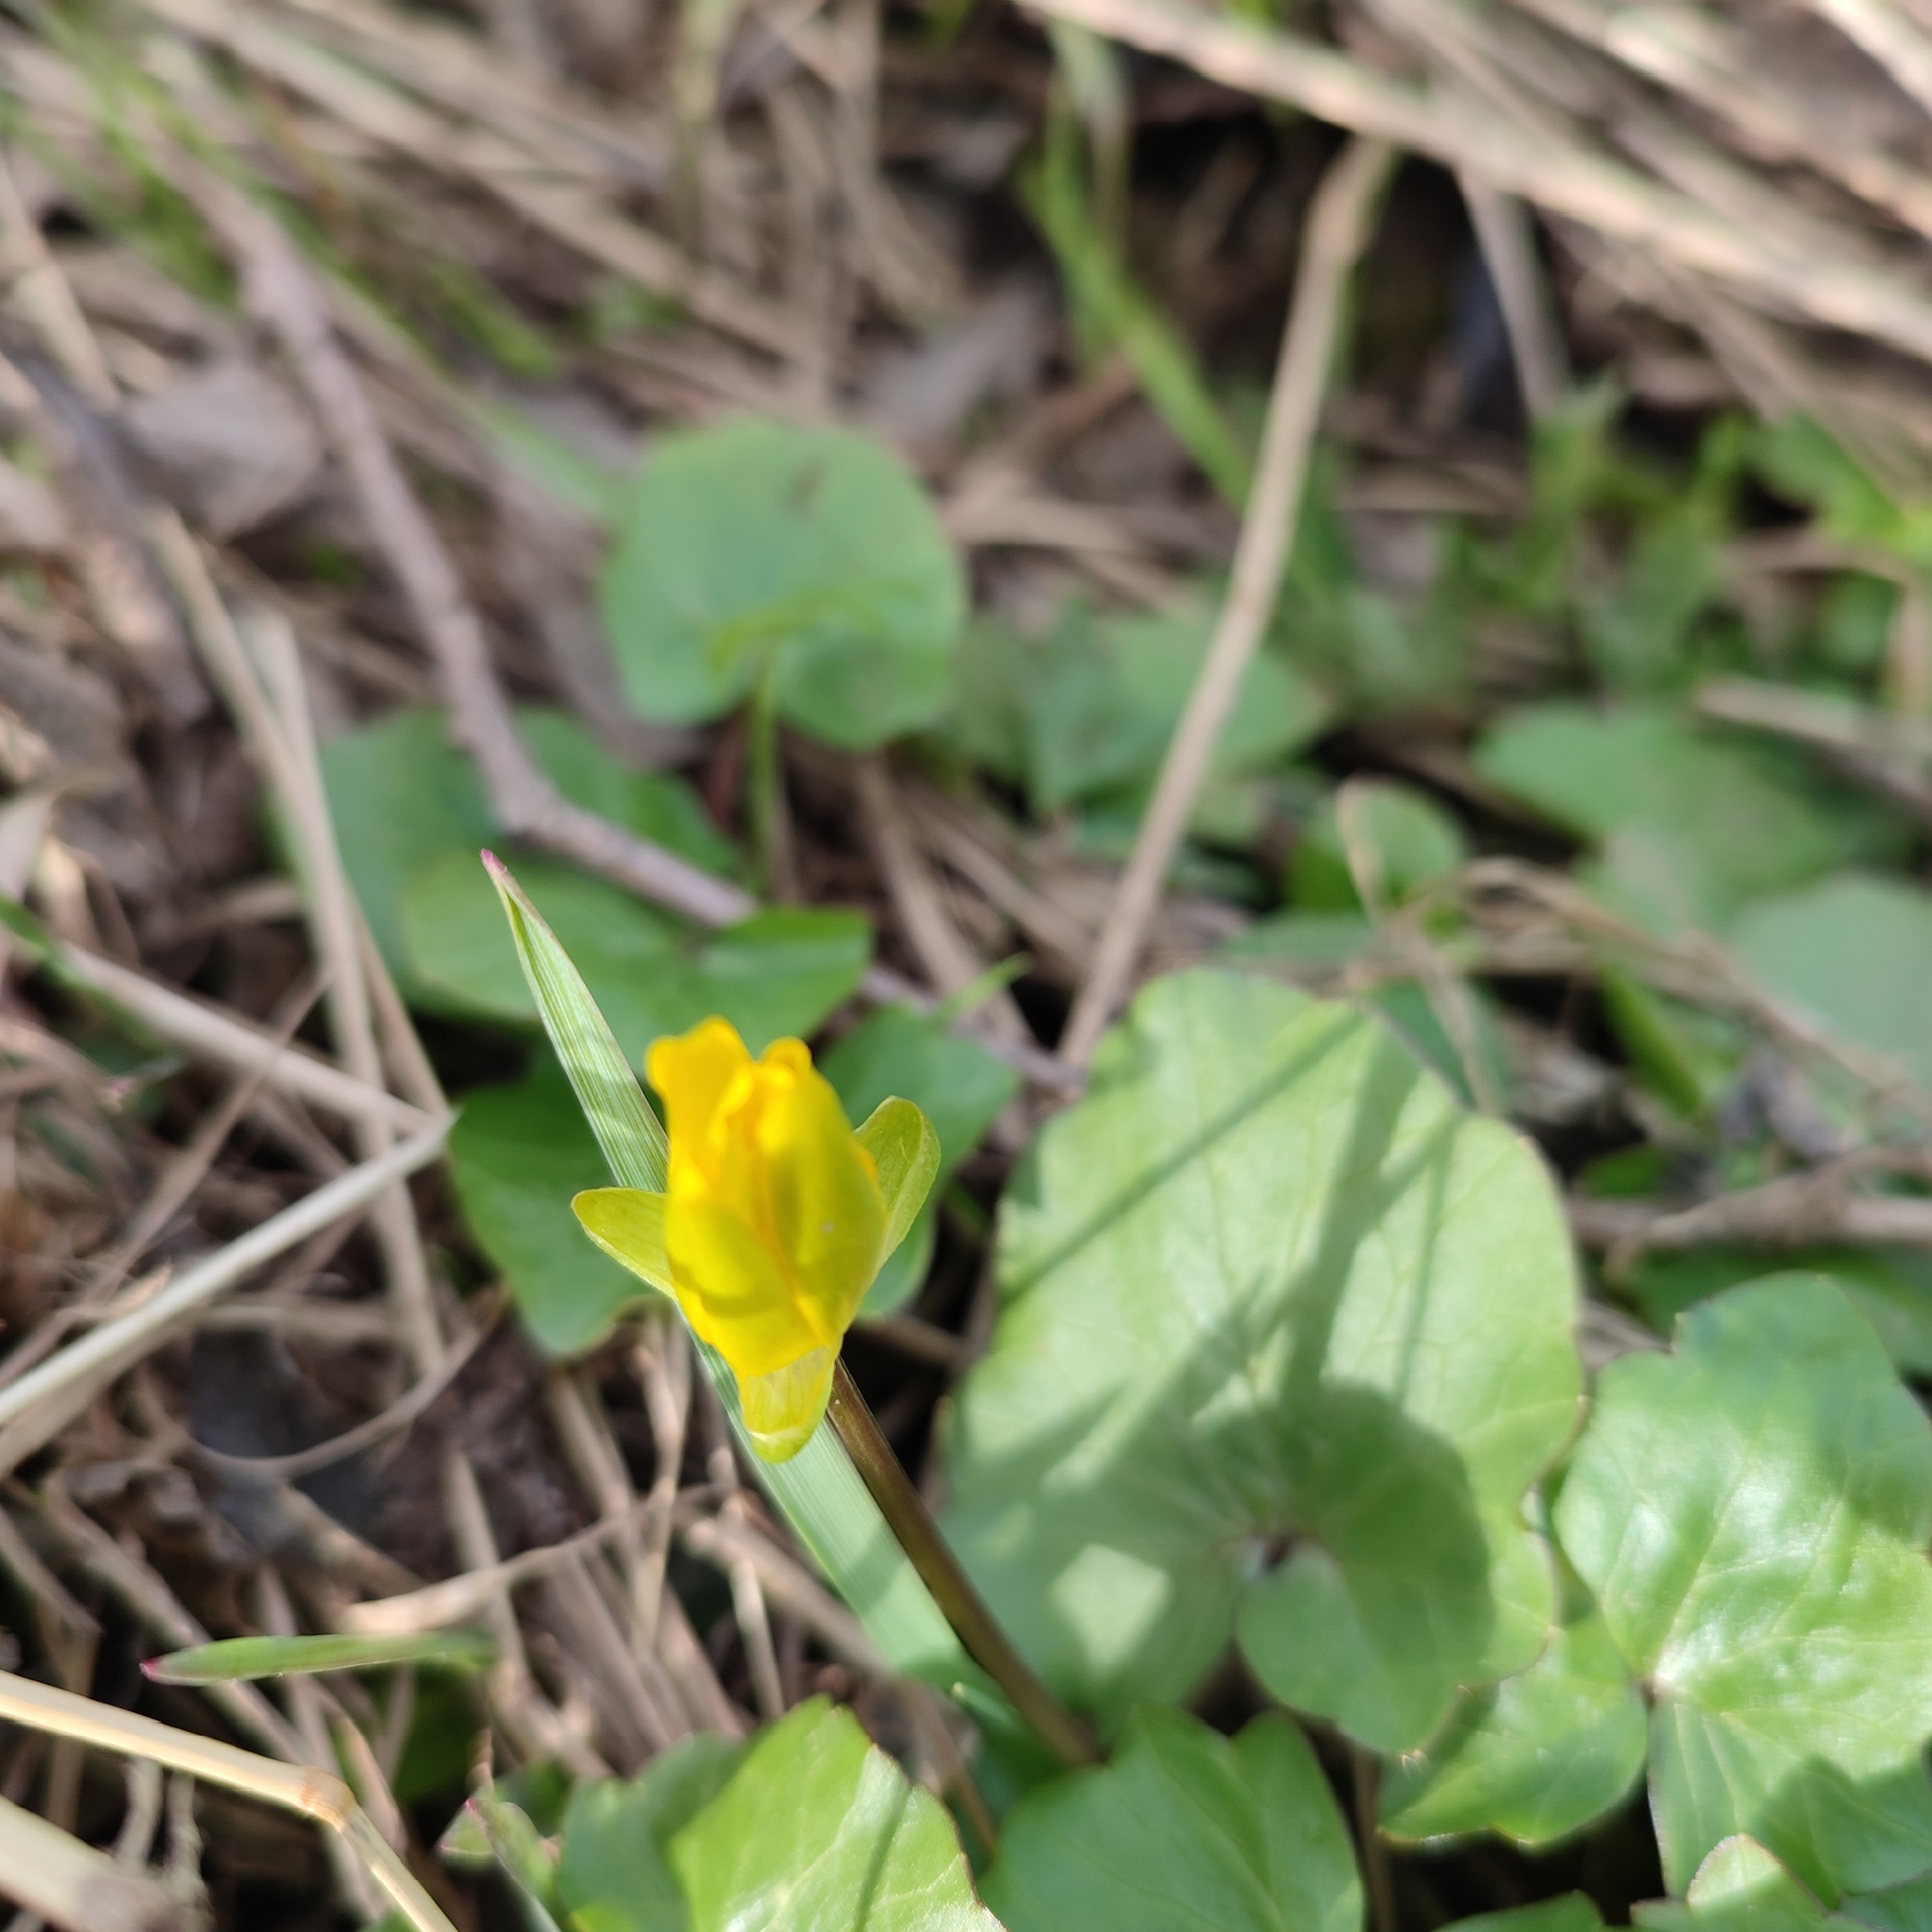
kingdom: Plantae
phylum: Tracheophyta
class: Magnoliopsida
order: Ranunculales
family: Ranunculaceae
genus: Ficaria
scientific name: Ficaria verna
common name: Lesser celandine
